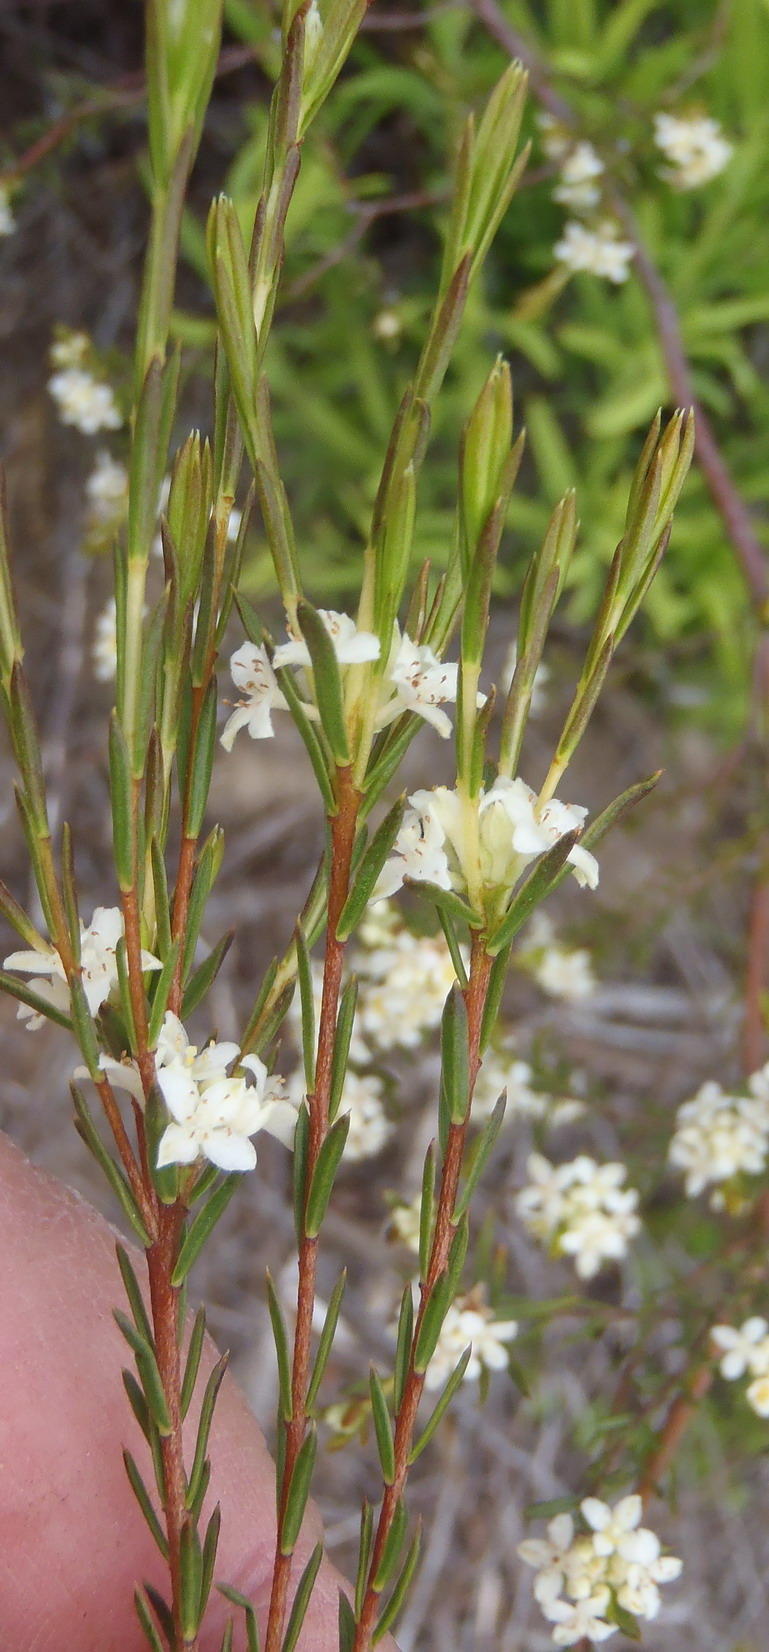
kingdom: Plantae
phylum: Tracheophyta
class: Magnoliopsida
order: Malvales
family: Thymelaeaceae
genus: Lachnaea
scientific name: Lachnaea diosmoides
